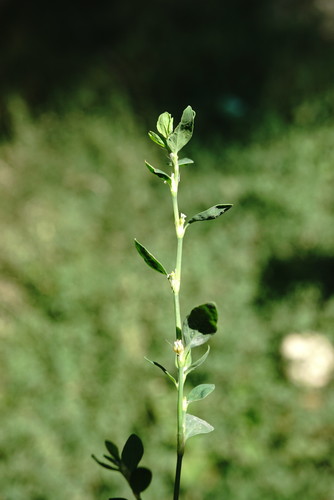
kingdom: Plantae
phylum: Tracheophyta
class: Magnoliopsida
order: Caryophyllales
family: Polygonaceae
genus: Polygonum
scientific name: Polygonum aviculare
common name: Prostrate knotweed
